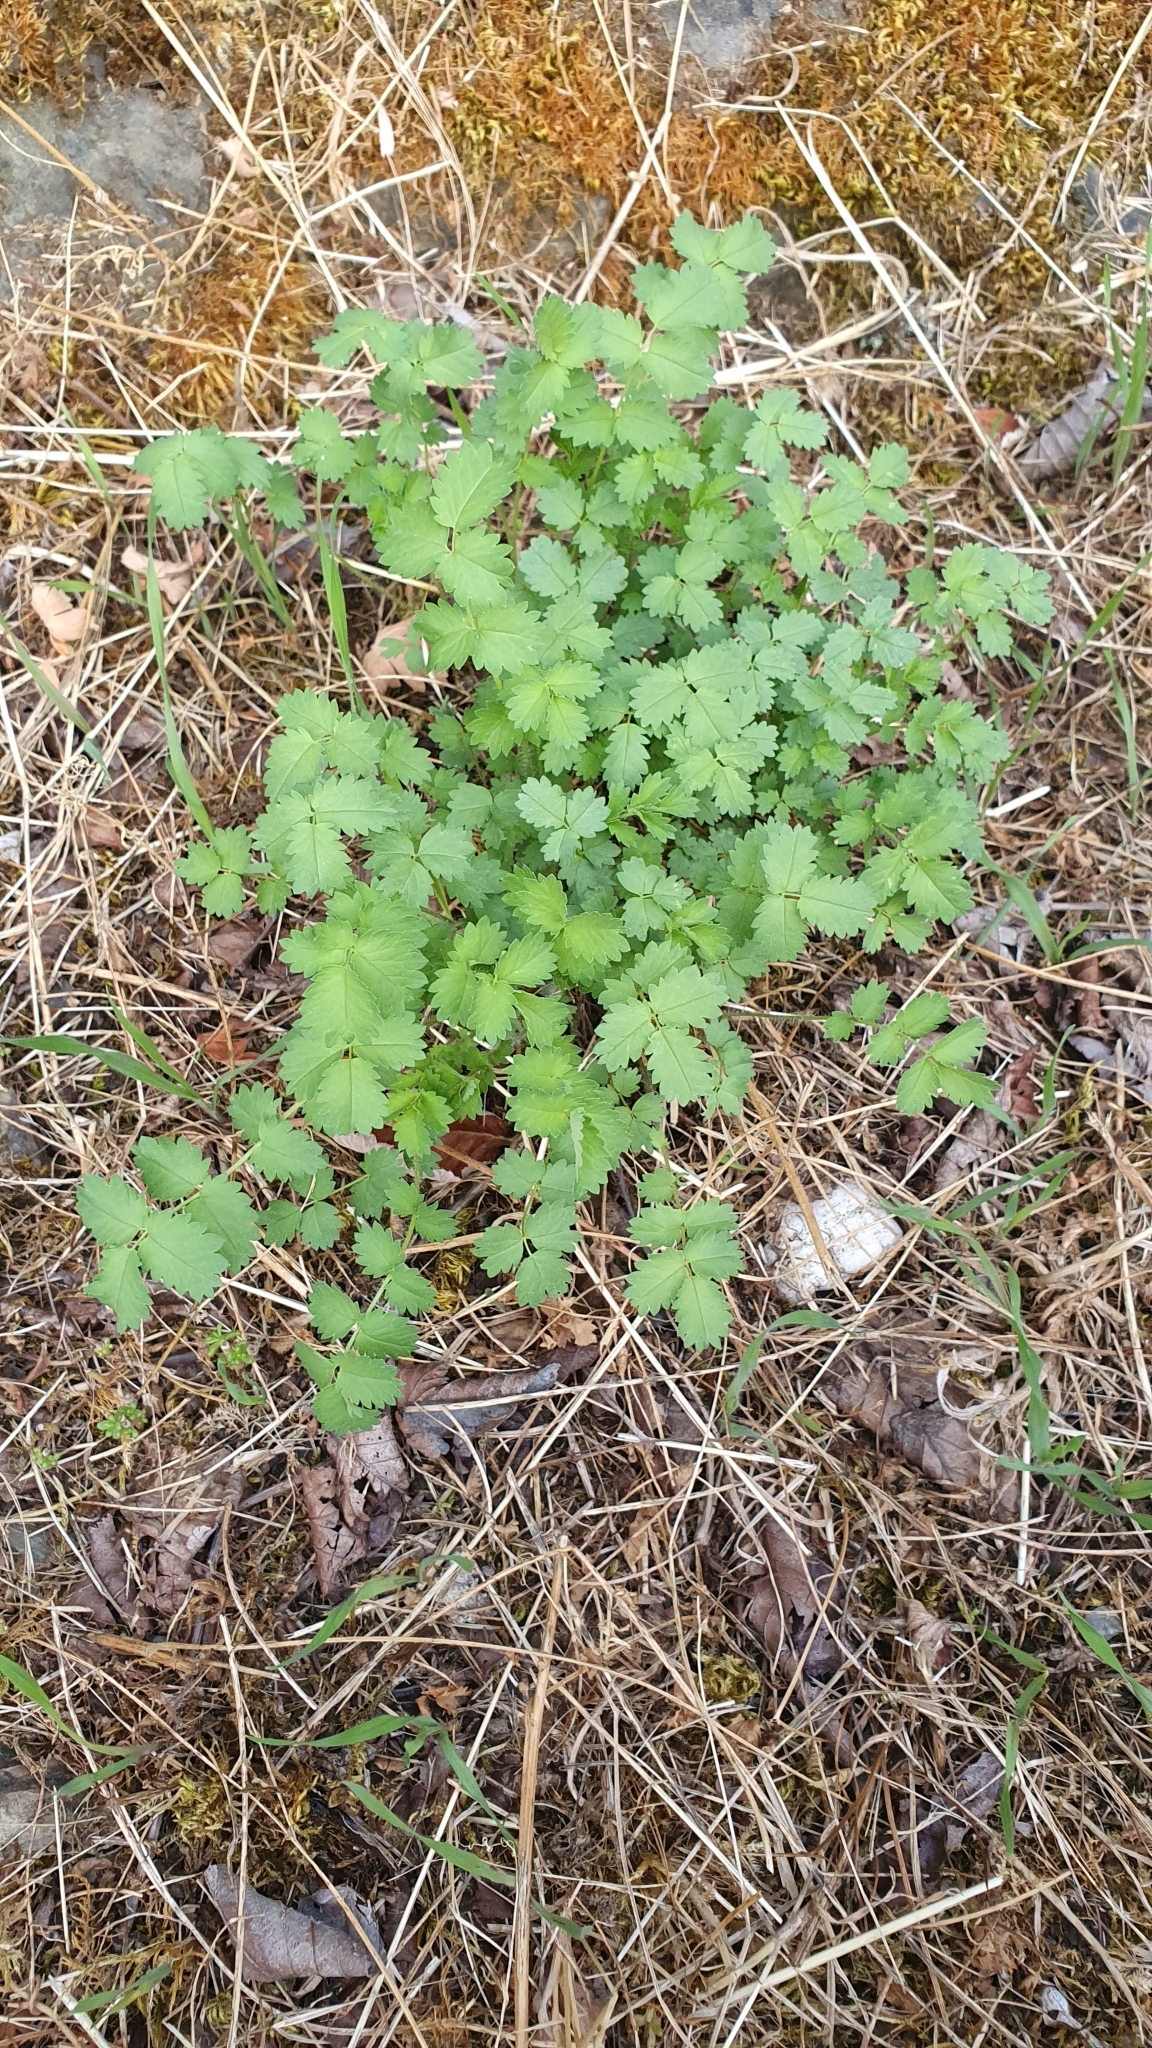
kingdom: Plantae
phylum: Tracheophyta
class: Magnoliopsida
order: Rosales
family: Rosaceae
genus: Poterium
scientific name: Poterium sanguisorba
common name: Salad burnet
